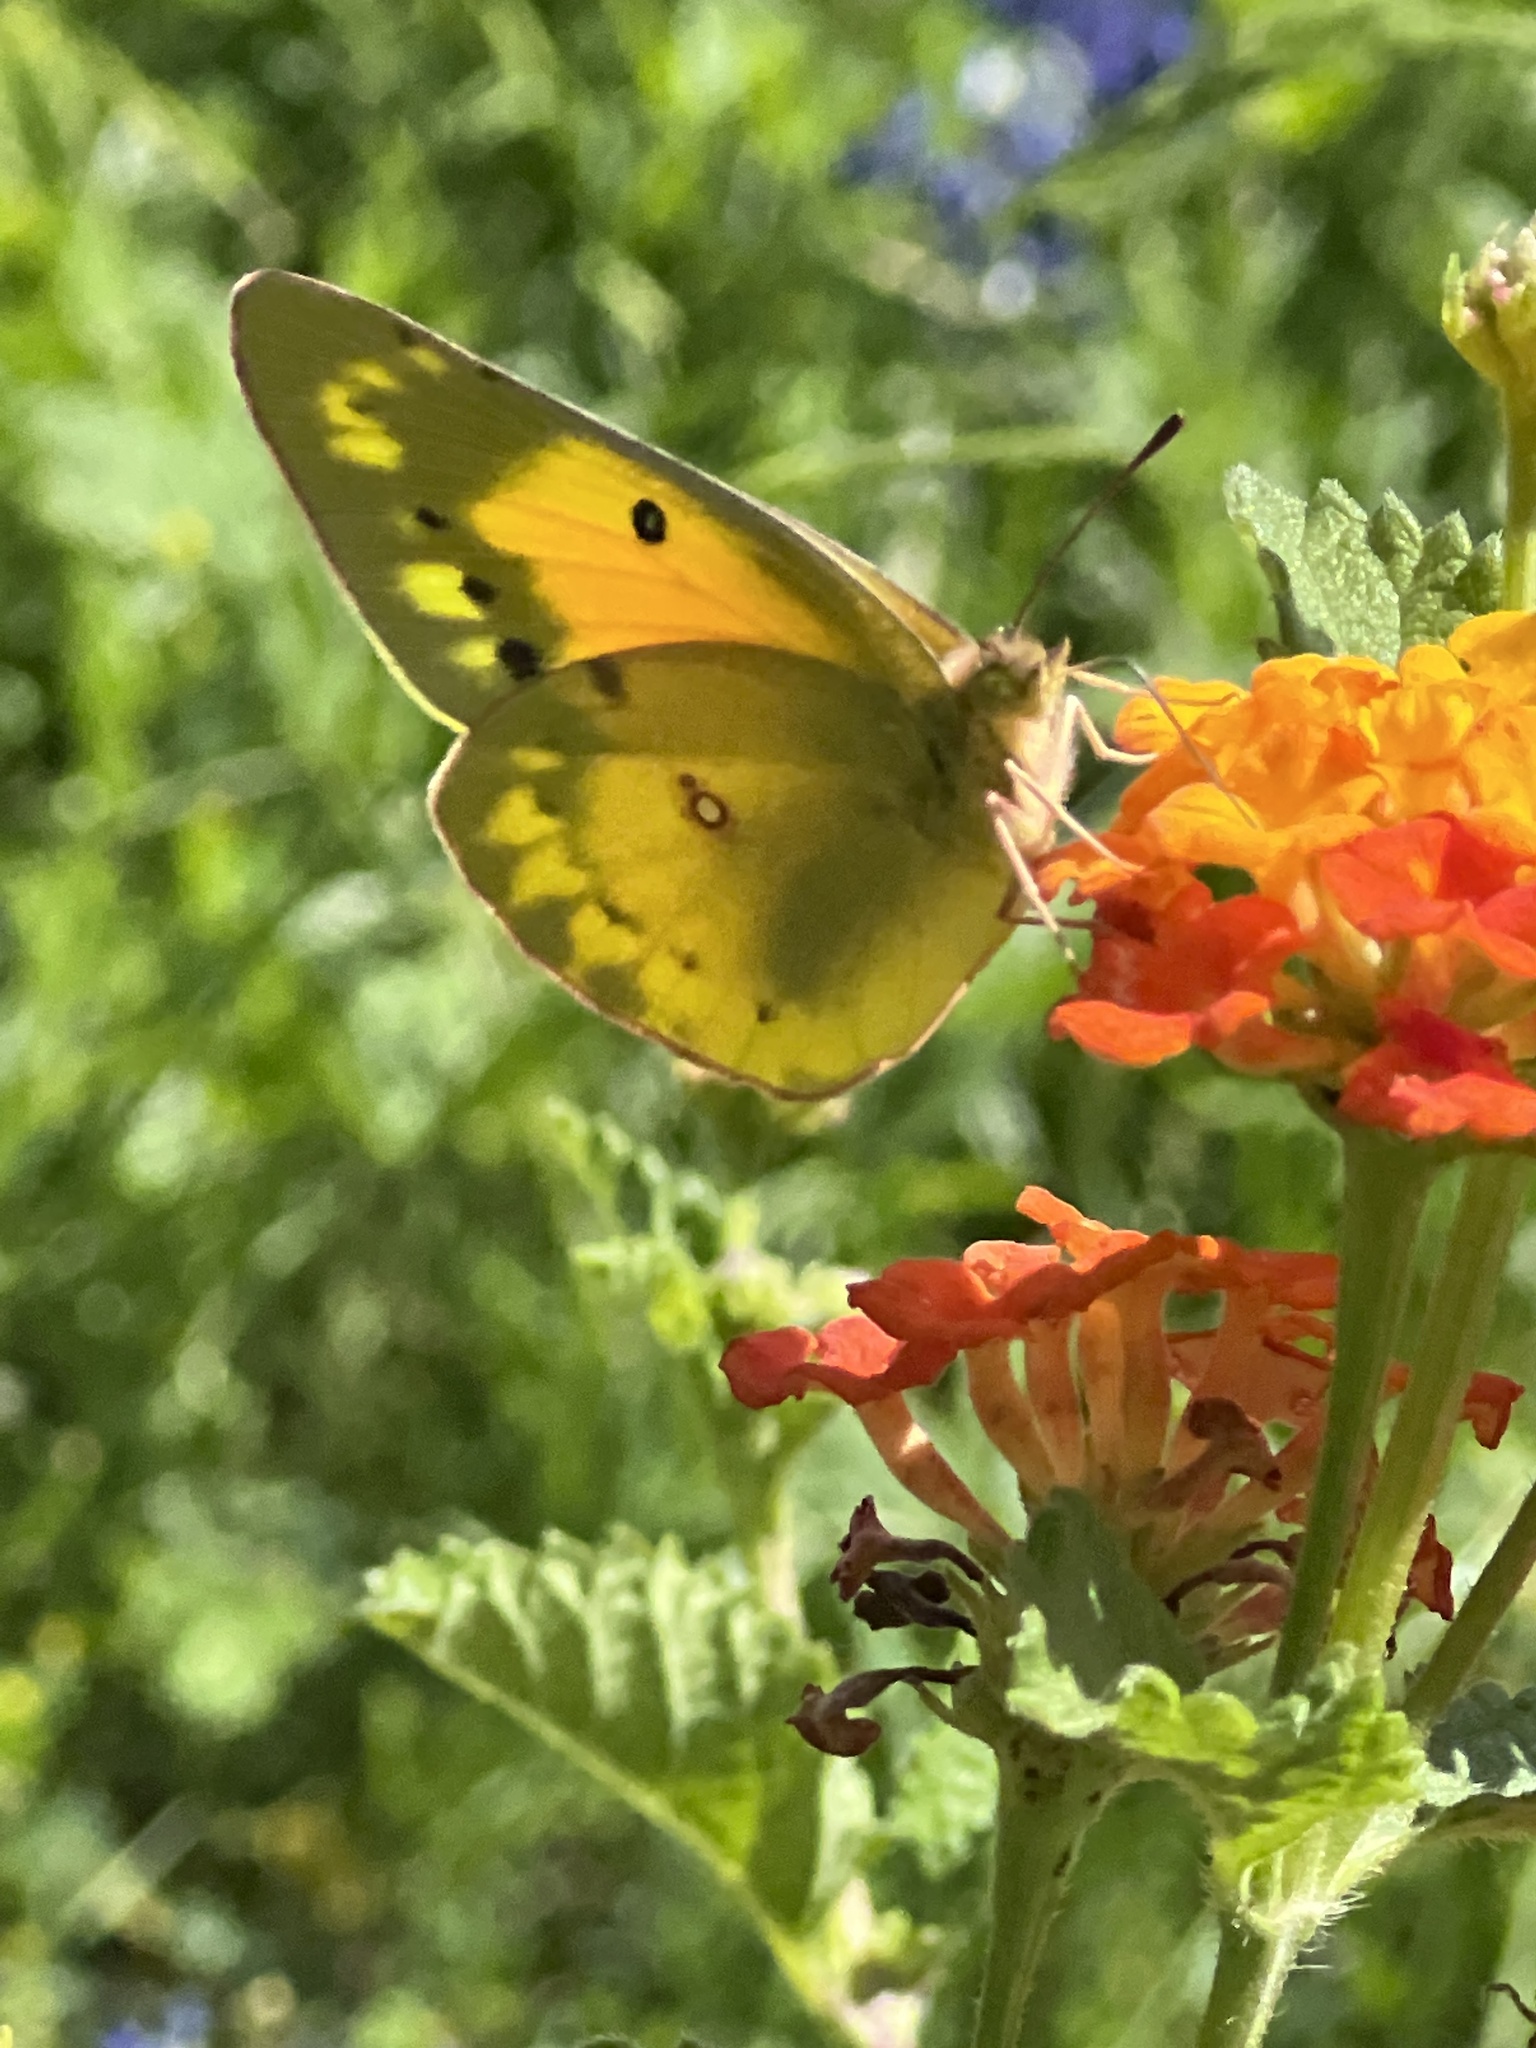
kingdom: Animalia
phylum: Arthropoda
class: Insecta
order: Lepidoptera
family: Pieridae
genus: Colias
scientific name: Colias eurytheme
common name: Alfalfa butterfly
